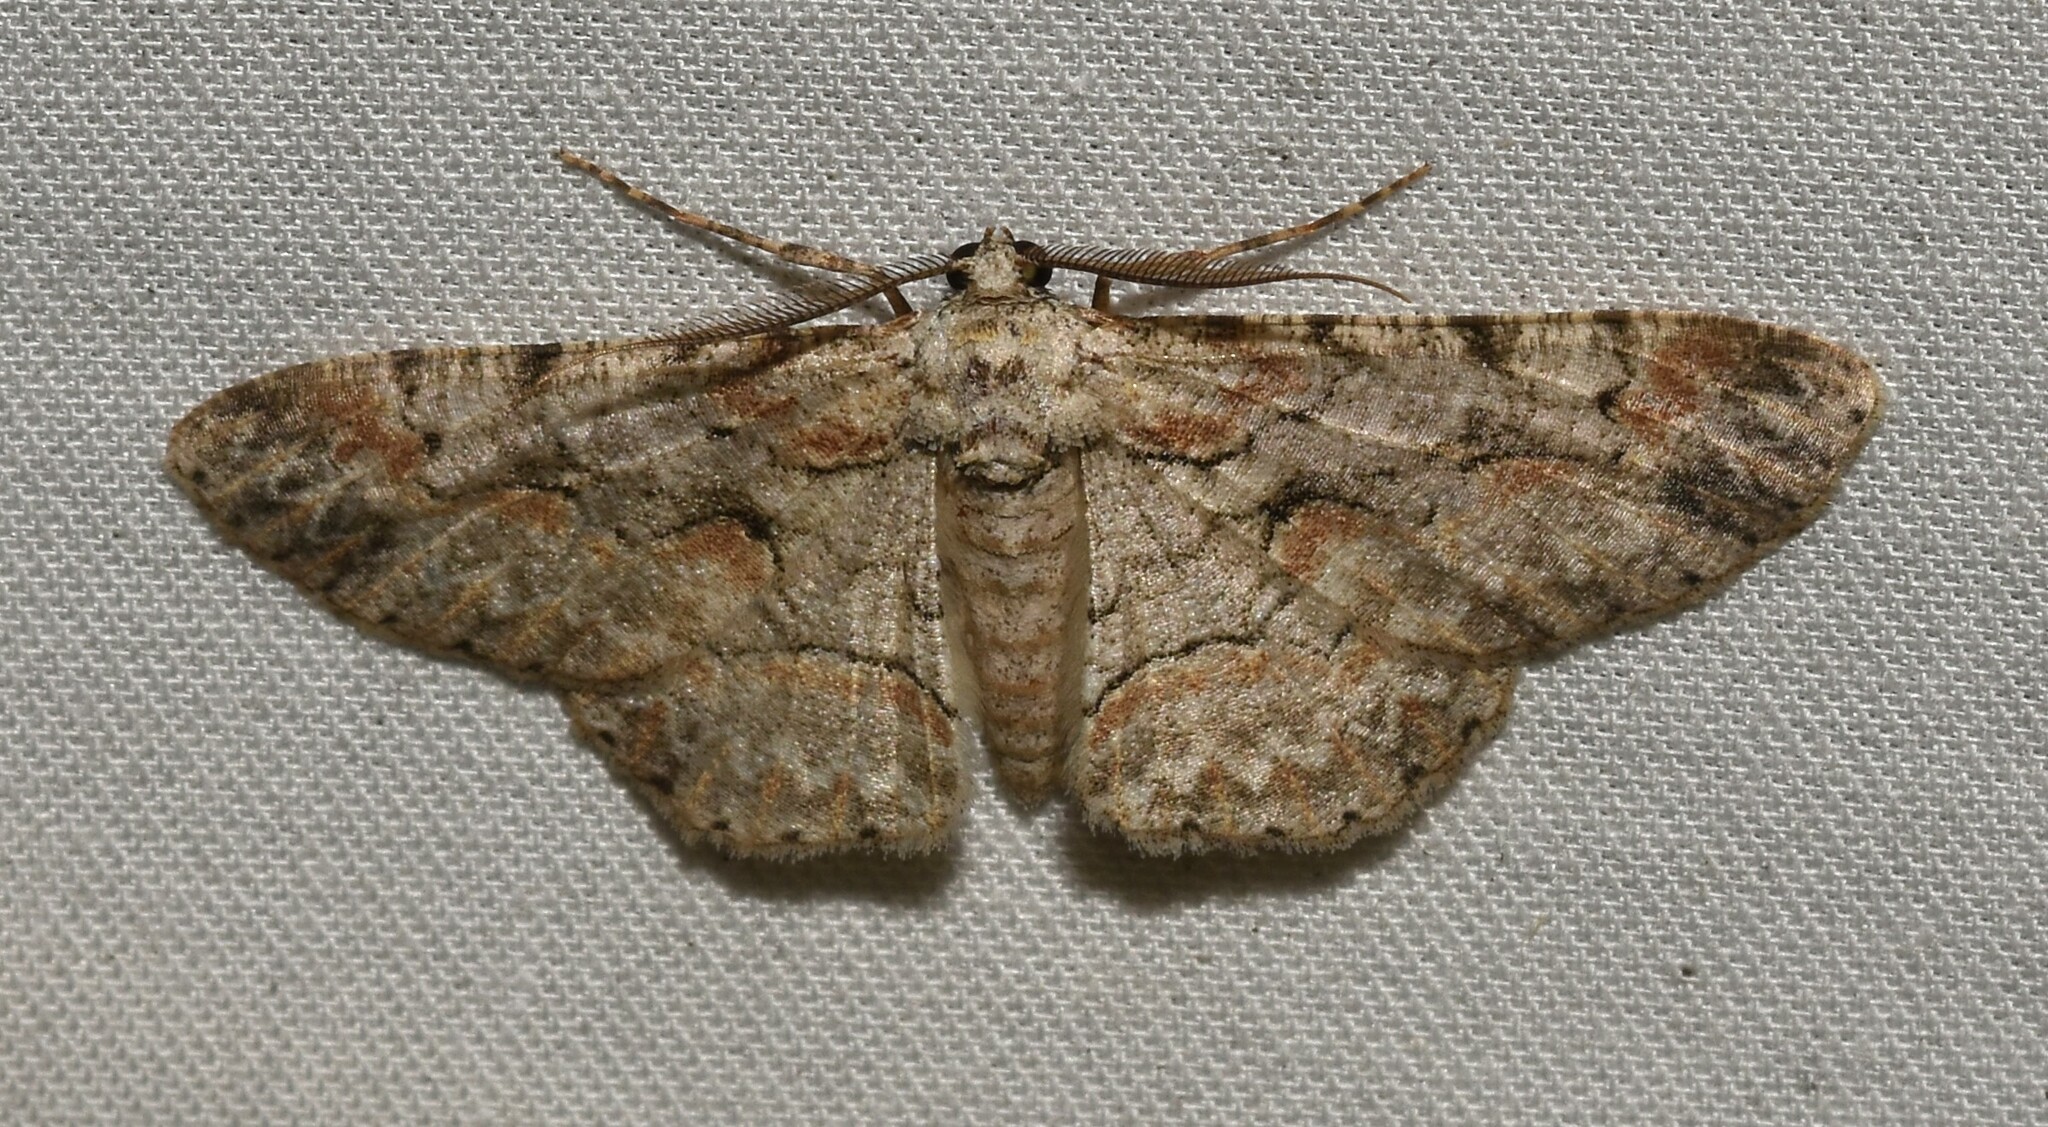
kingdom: Animalia
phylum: Arthropoda
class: Insecta
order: Lepidoptera
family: Geometridae
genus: Iridopsis
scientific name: Iridopsis defectaria
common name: Brown-shaded gray
